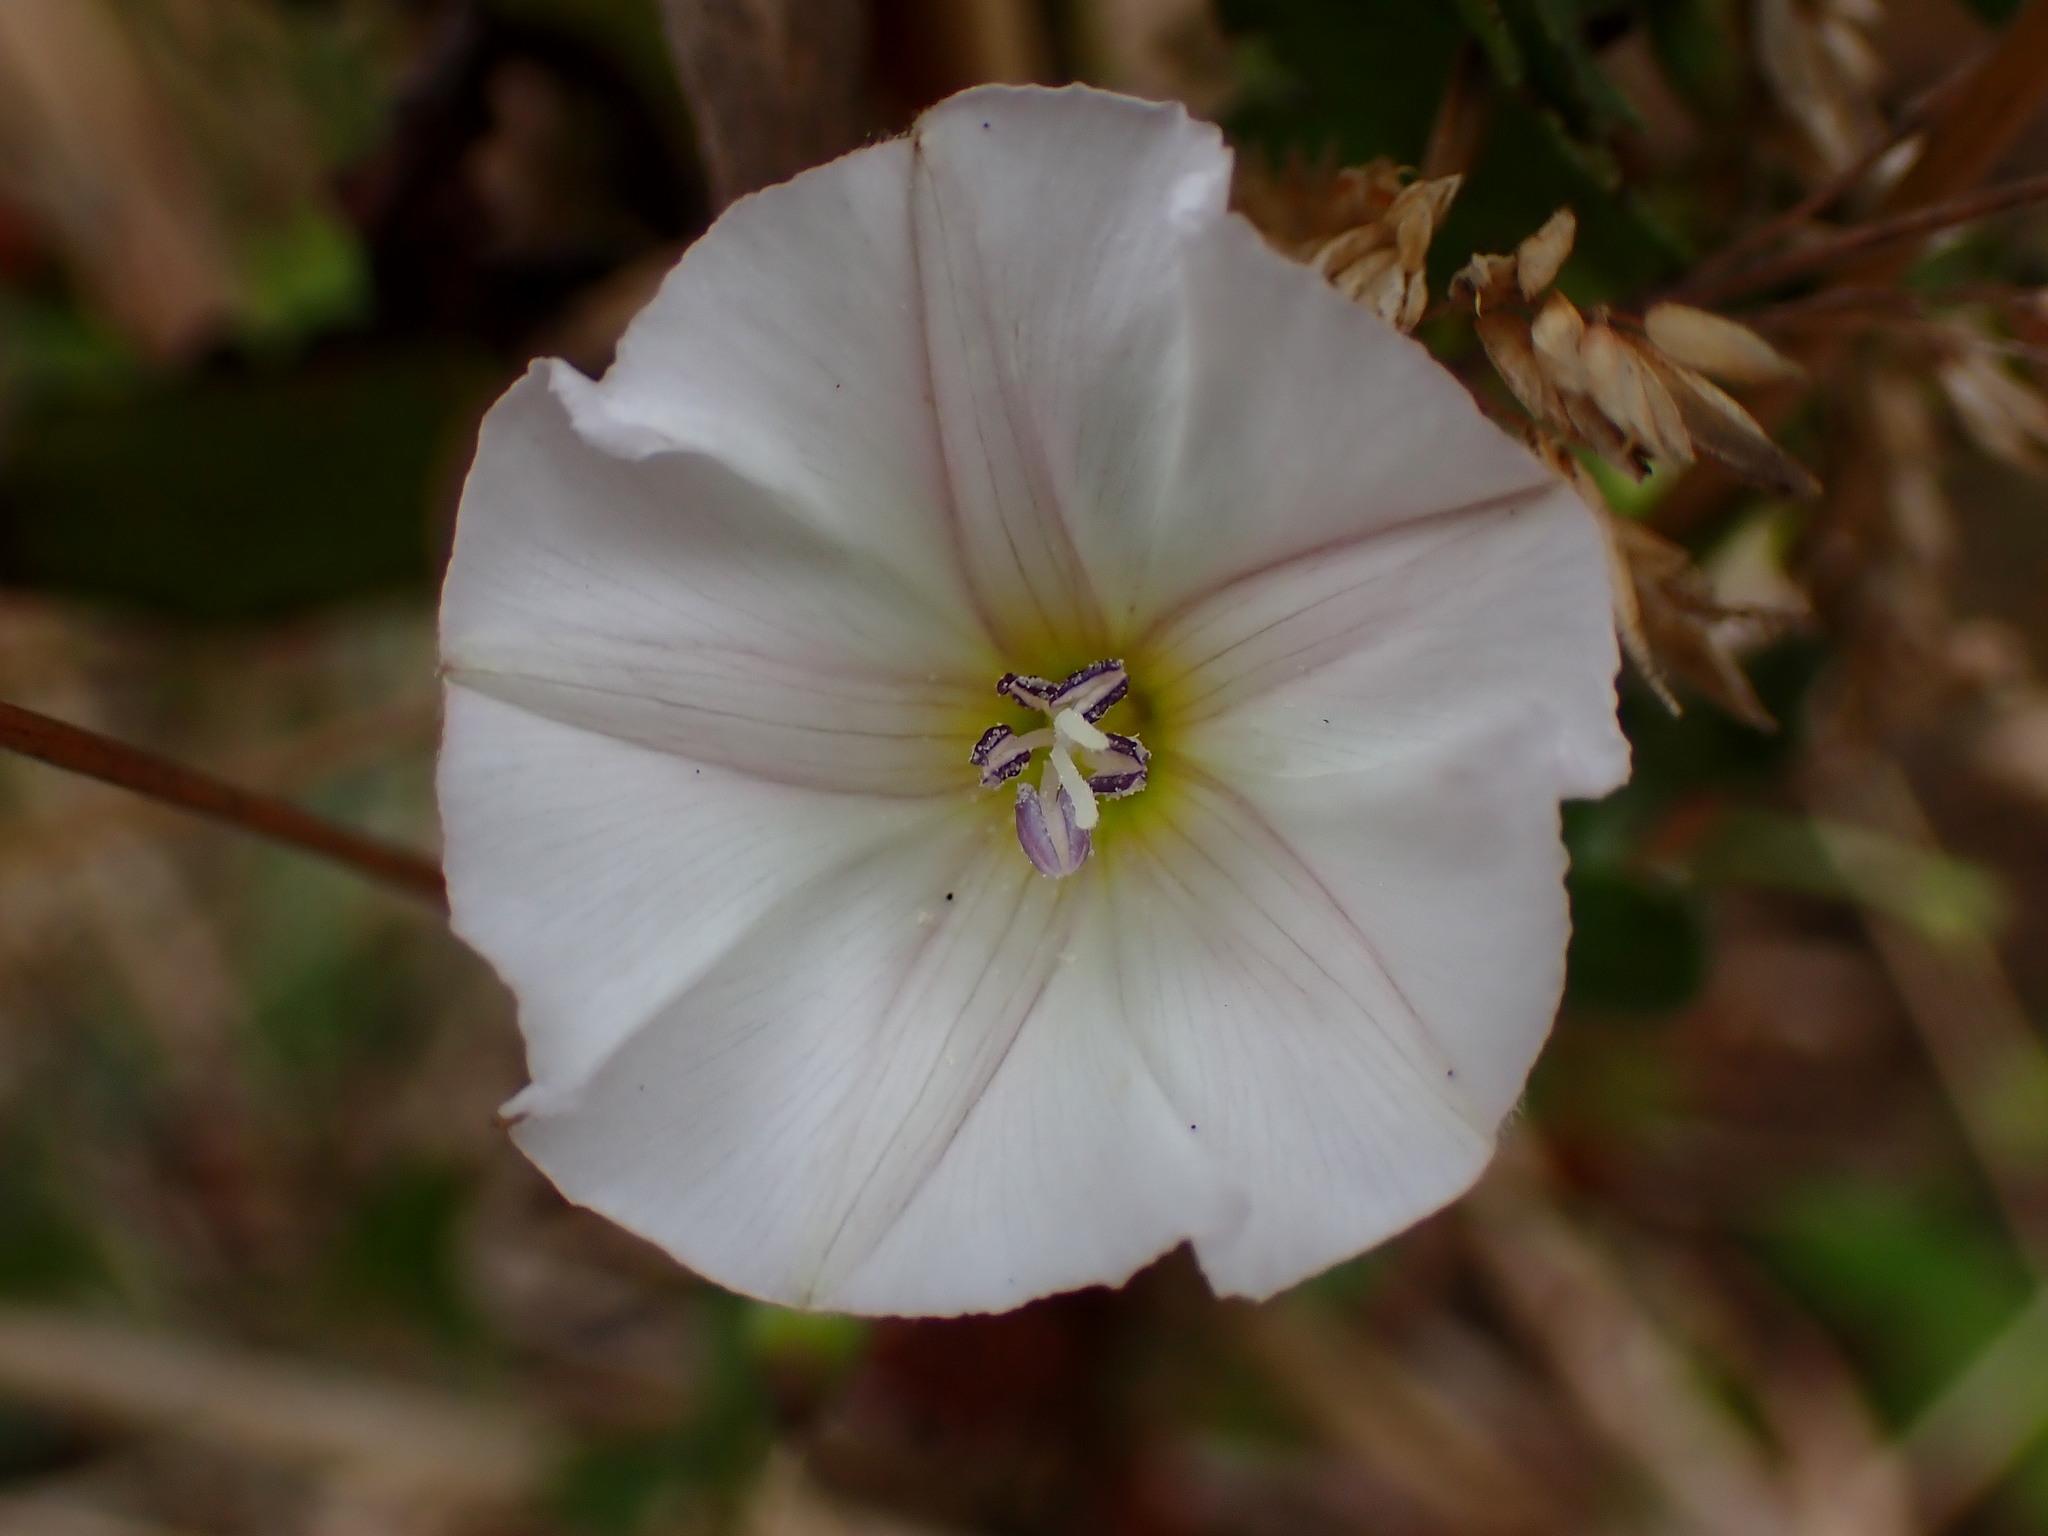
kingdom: Plantae
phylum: Tracheophyta
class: Magnoliopsida
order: Solanales
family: Convolvulaceae
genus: Convolvulus
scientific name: Convolvulus arvensis
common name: Field bindweed
